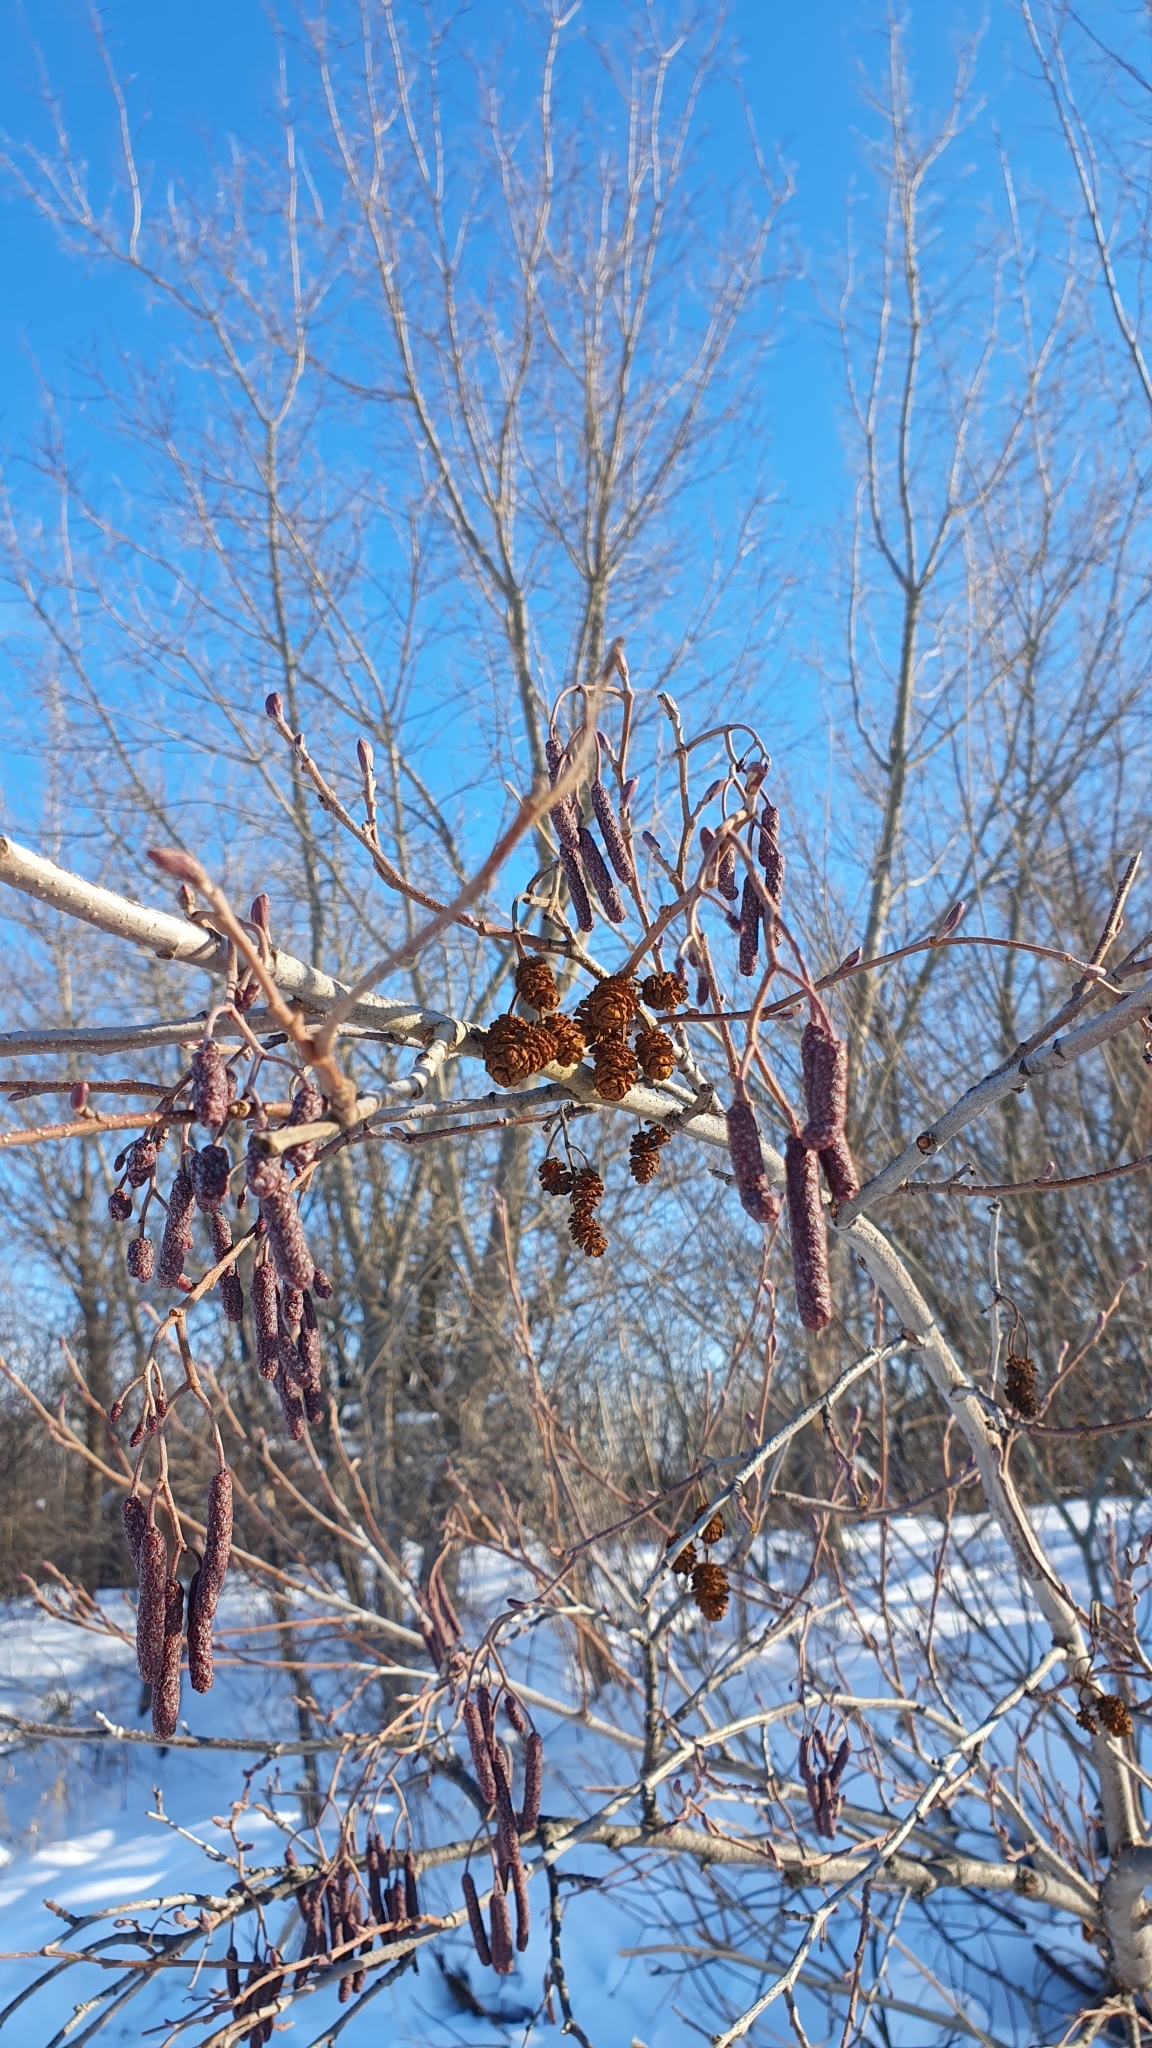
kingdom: Plantae
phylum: Tracheophyta
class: Magnoliopsida
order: Fagales
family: Betulaceae
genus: Alnus
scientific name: Alnus incana
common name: Grey alder
